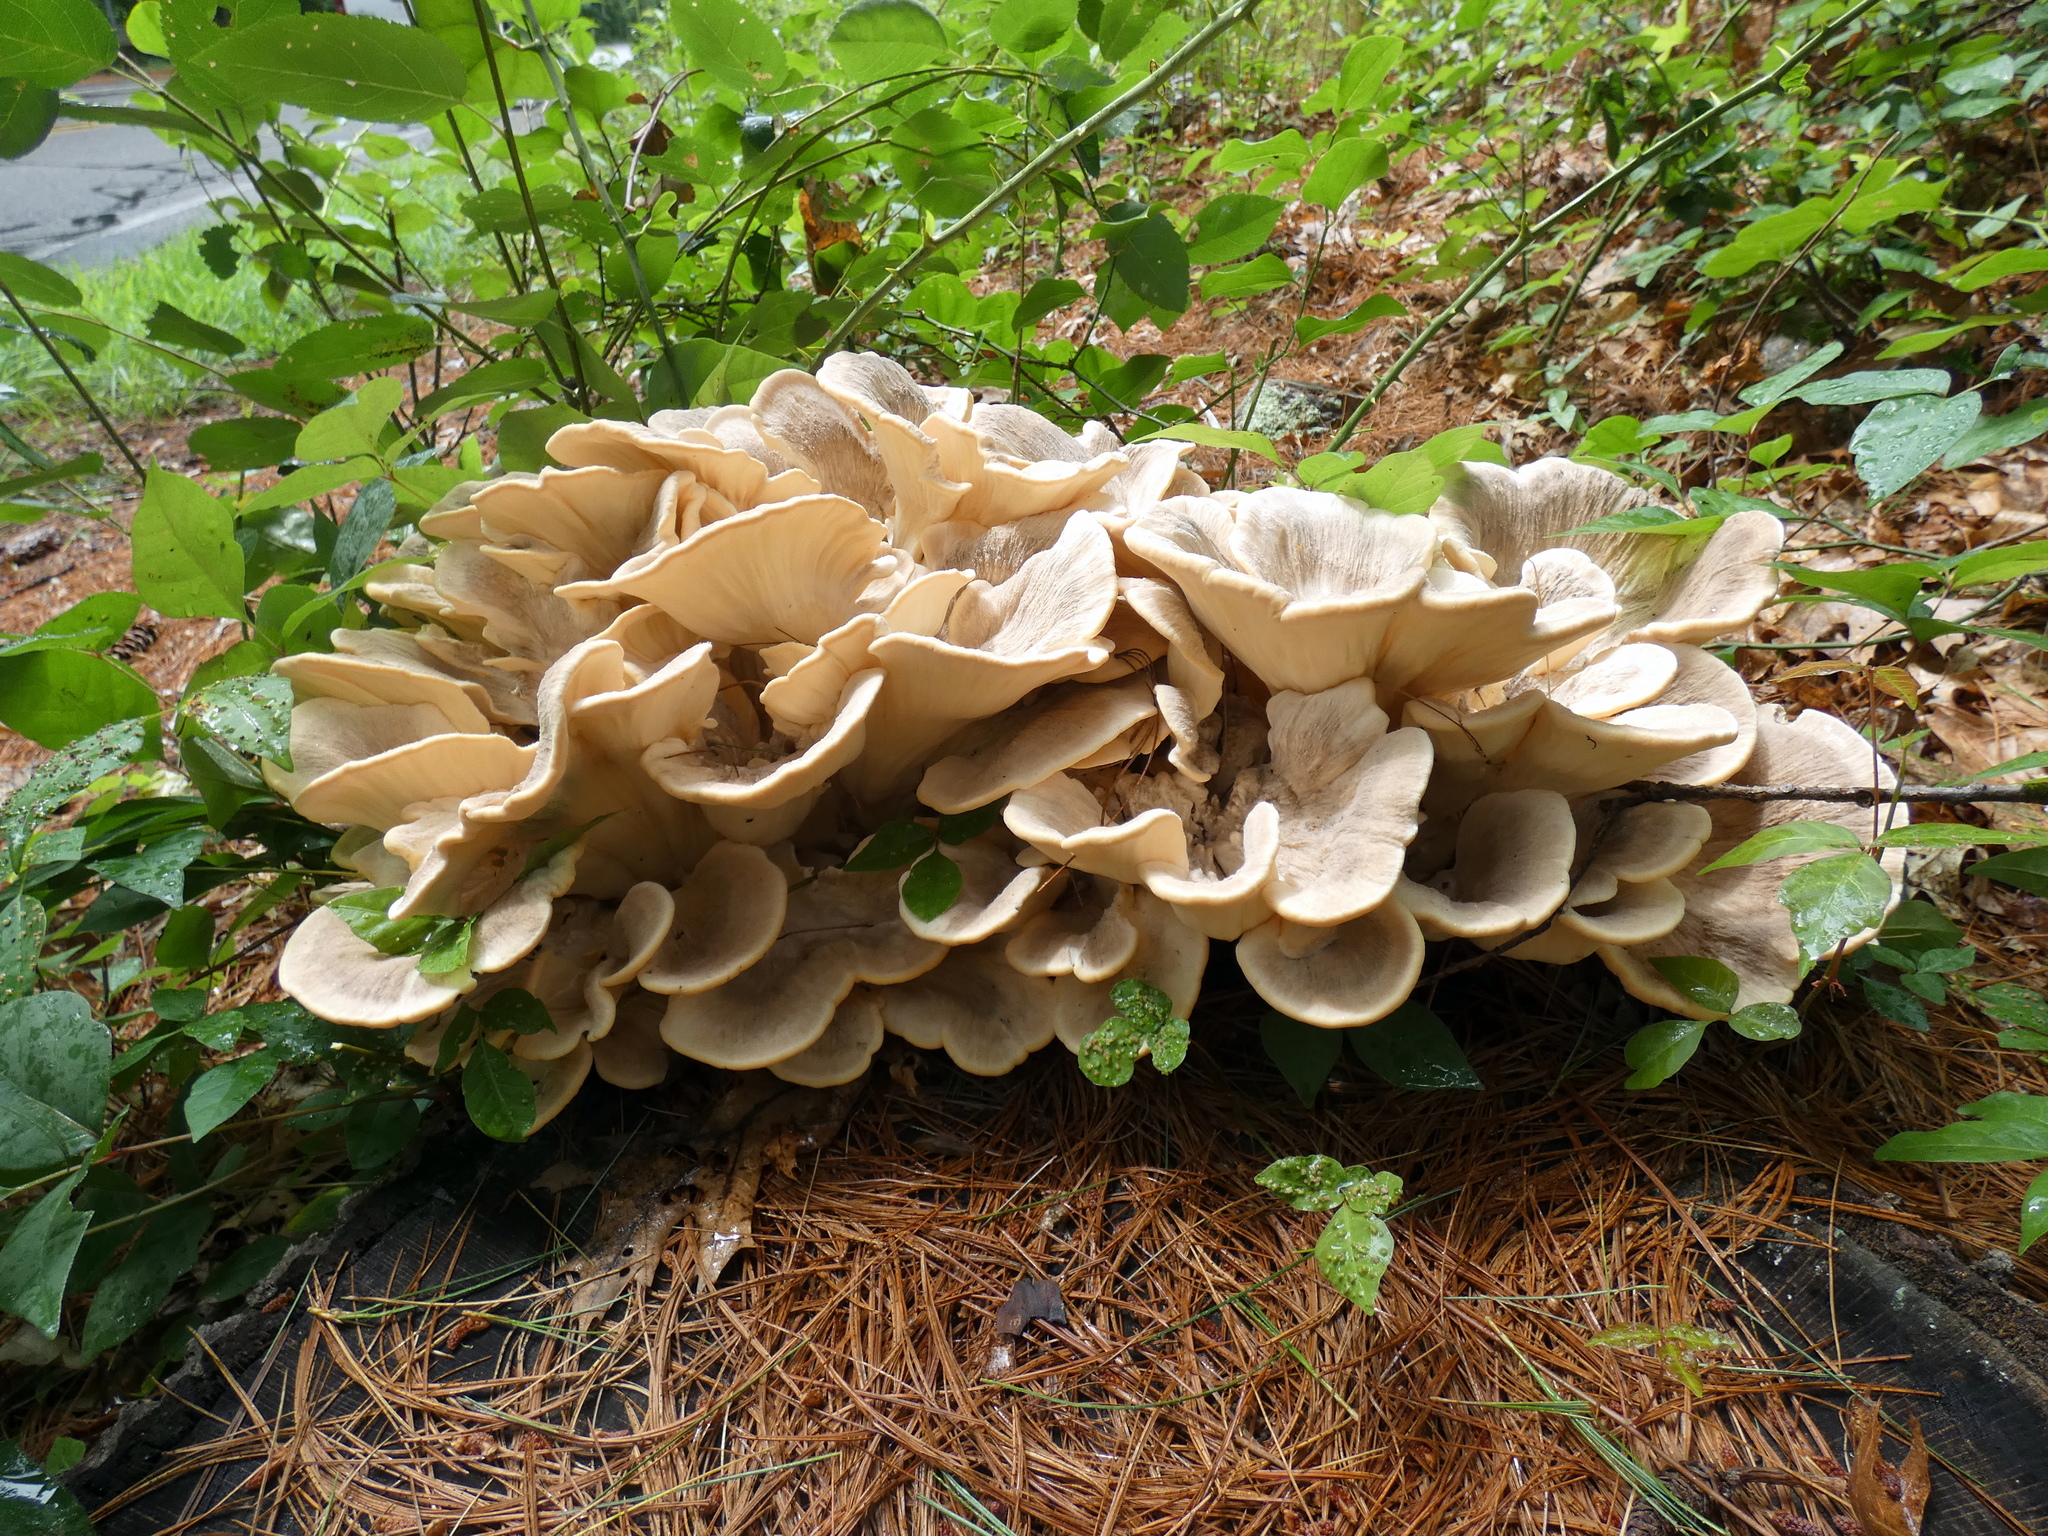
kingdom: Fungi
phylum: Basidiomycota
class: Agaricomycetes
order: Polyporales
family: Meripilaceae
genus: Meripilus
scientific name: Meripilus sumstinei
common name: Black-staining polypore
